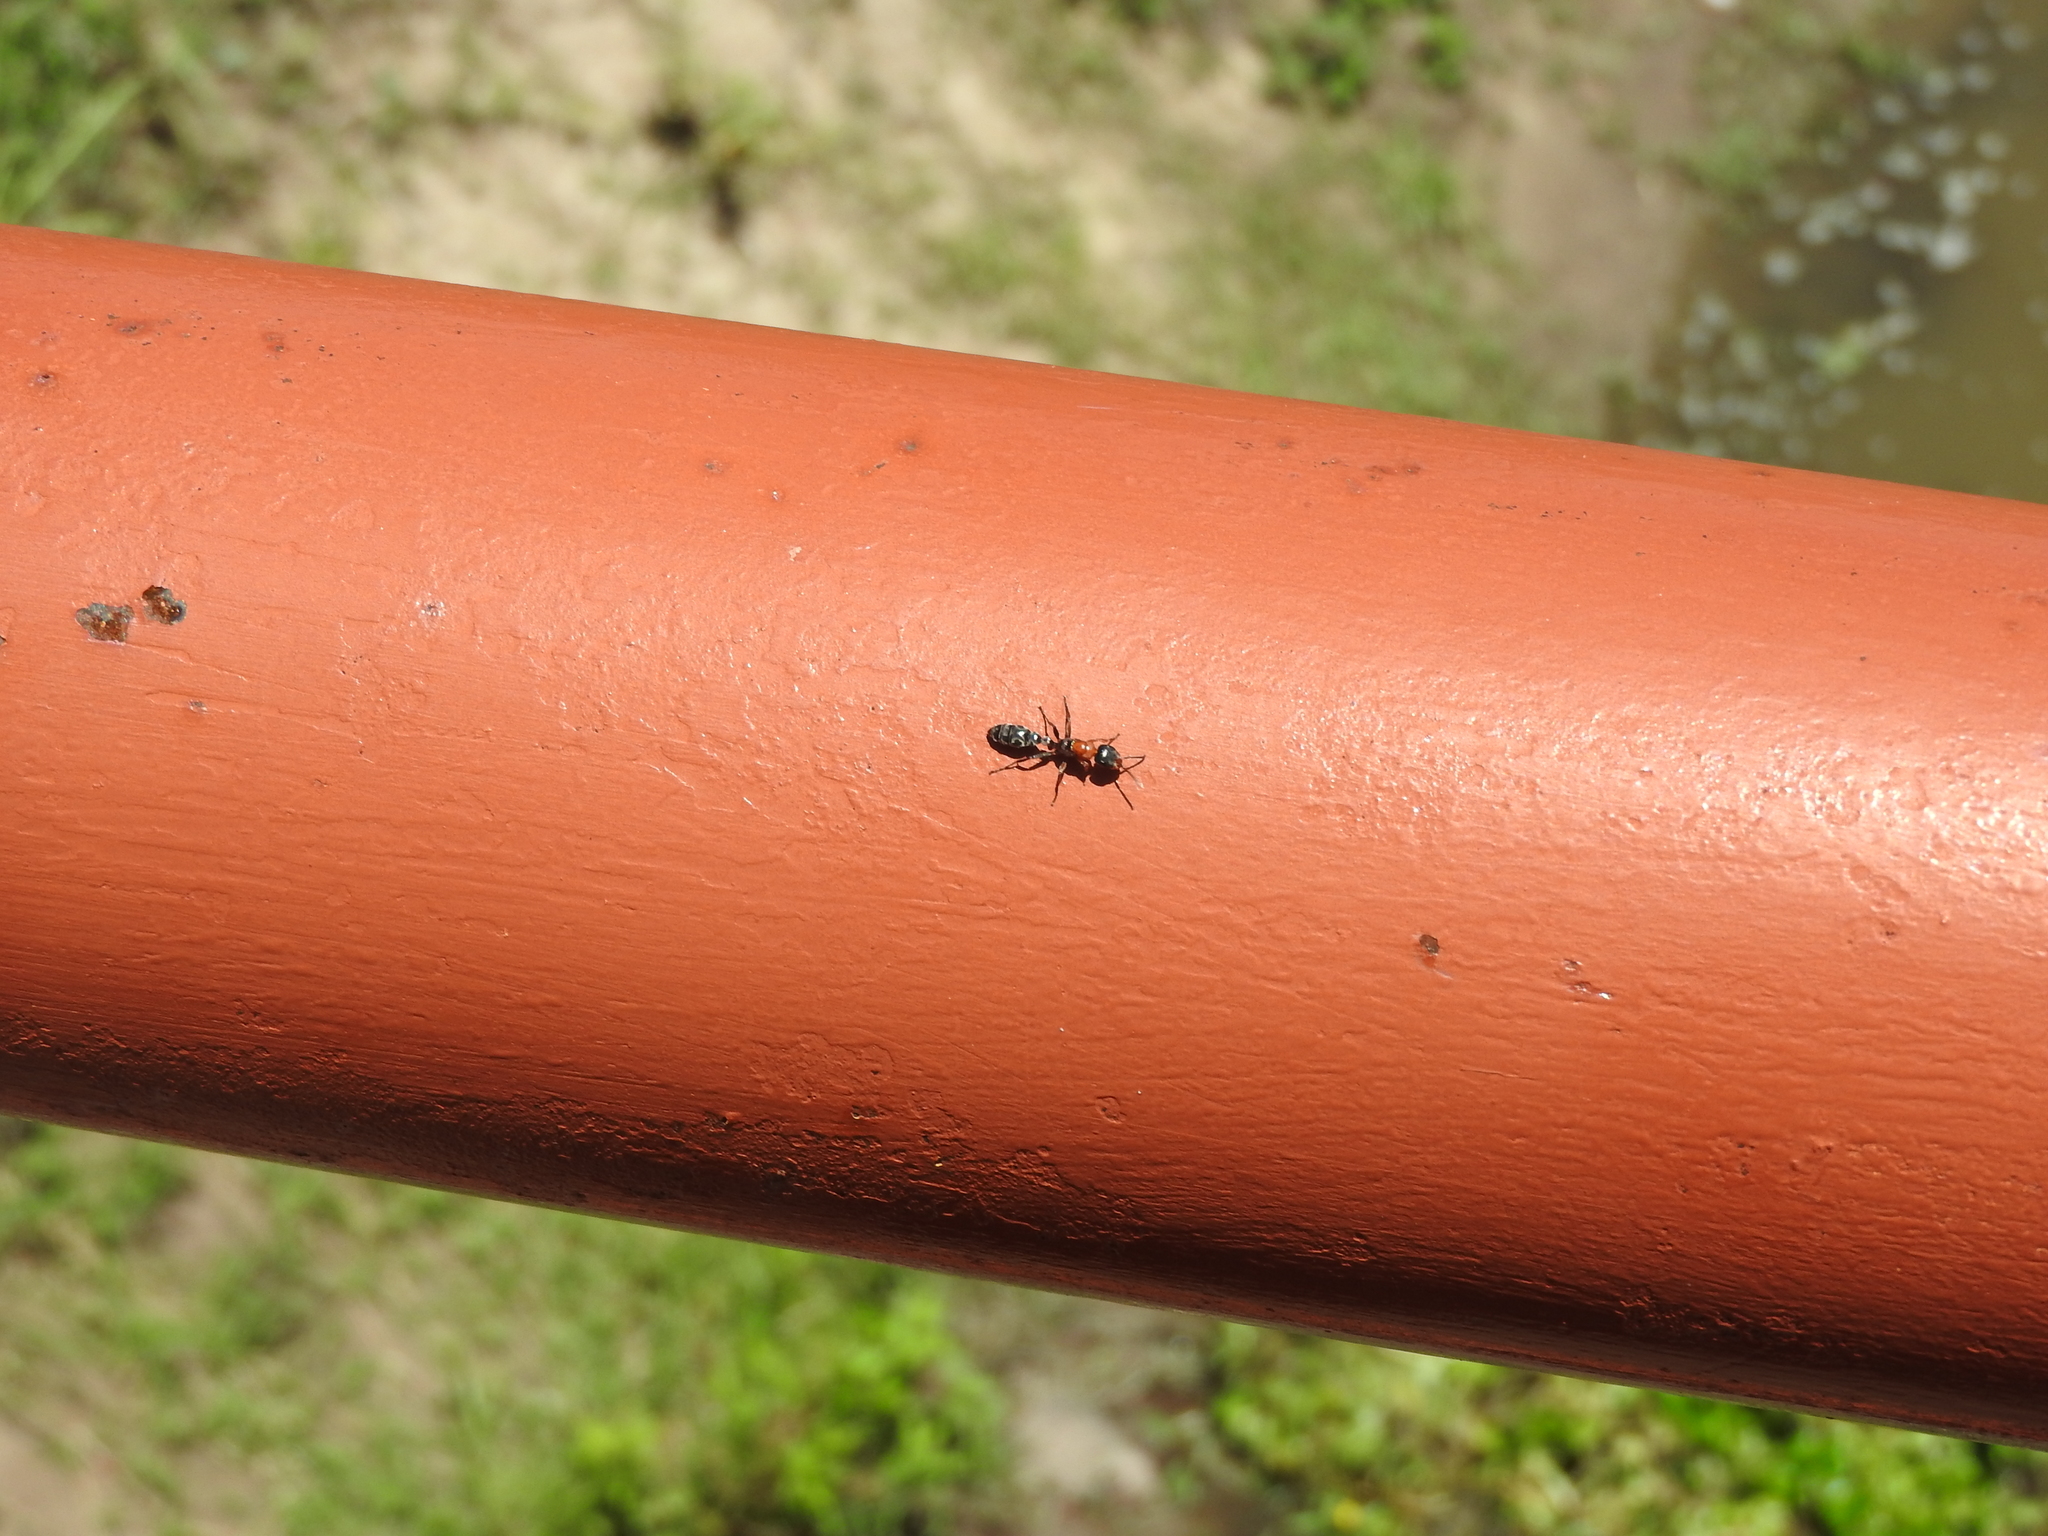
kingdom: Animalia
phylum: Arthropoda
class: Insecta
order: Hymenoptera
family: Formicidae
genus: Pseudomyrmex
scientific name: Pseudomyrmex gracilis
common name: Graceful twig ant
